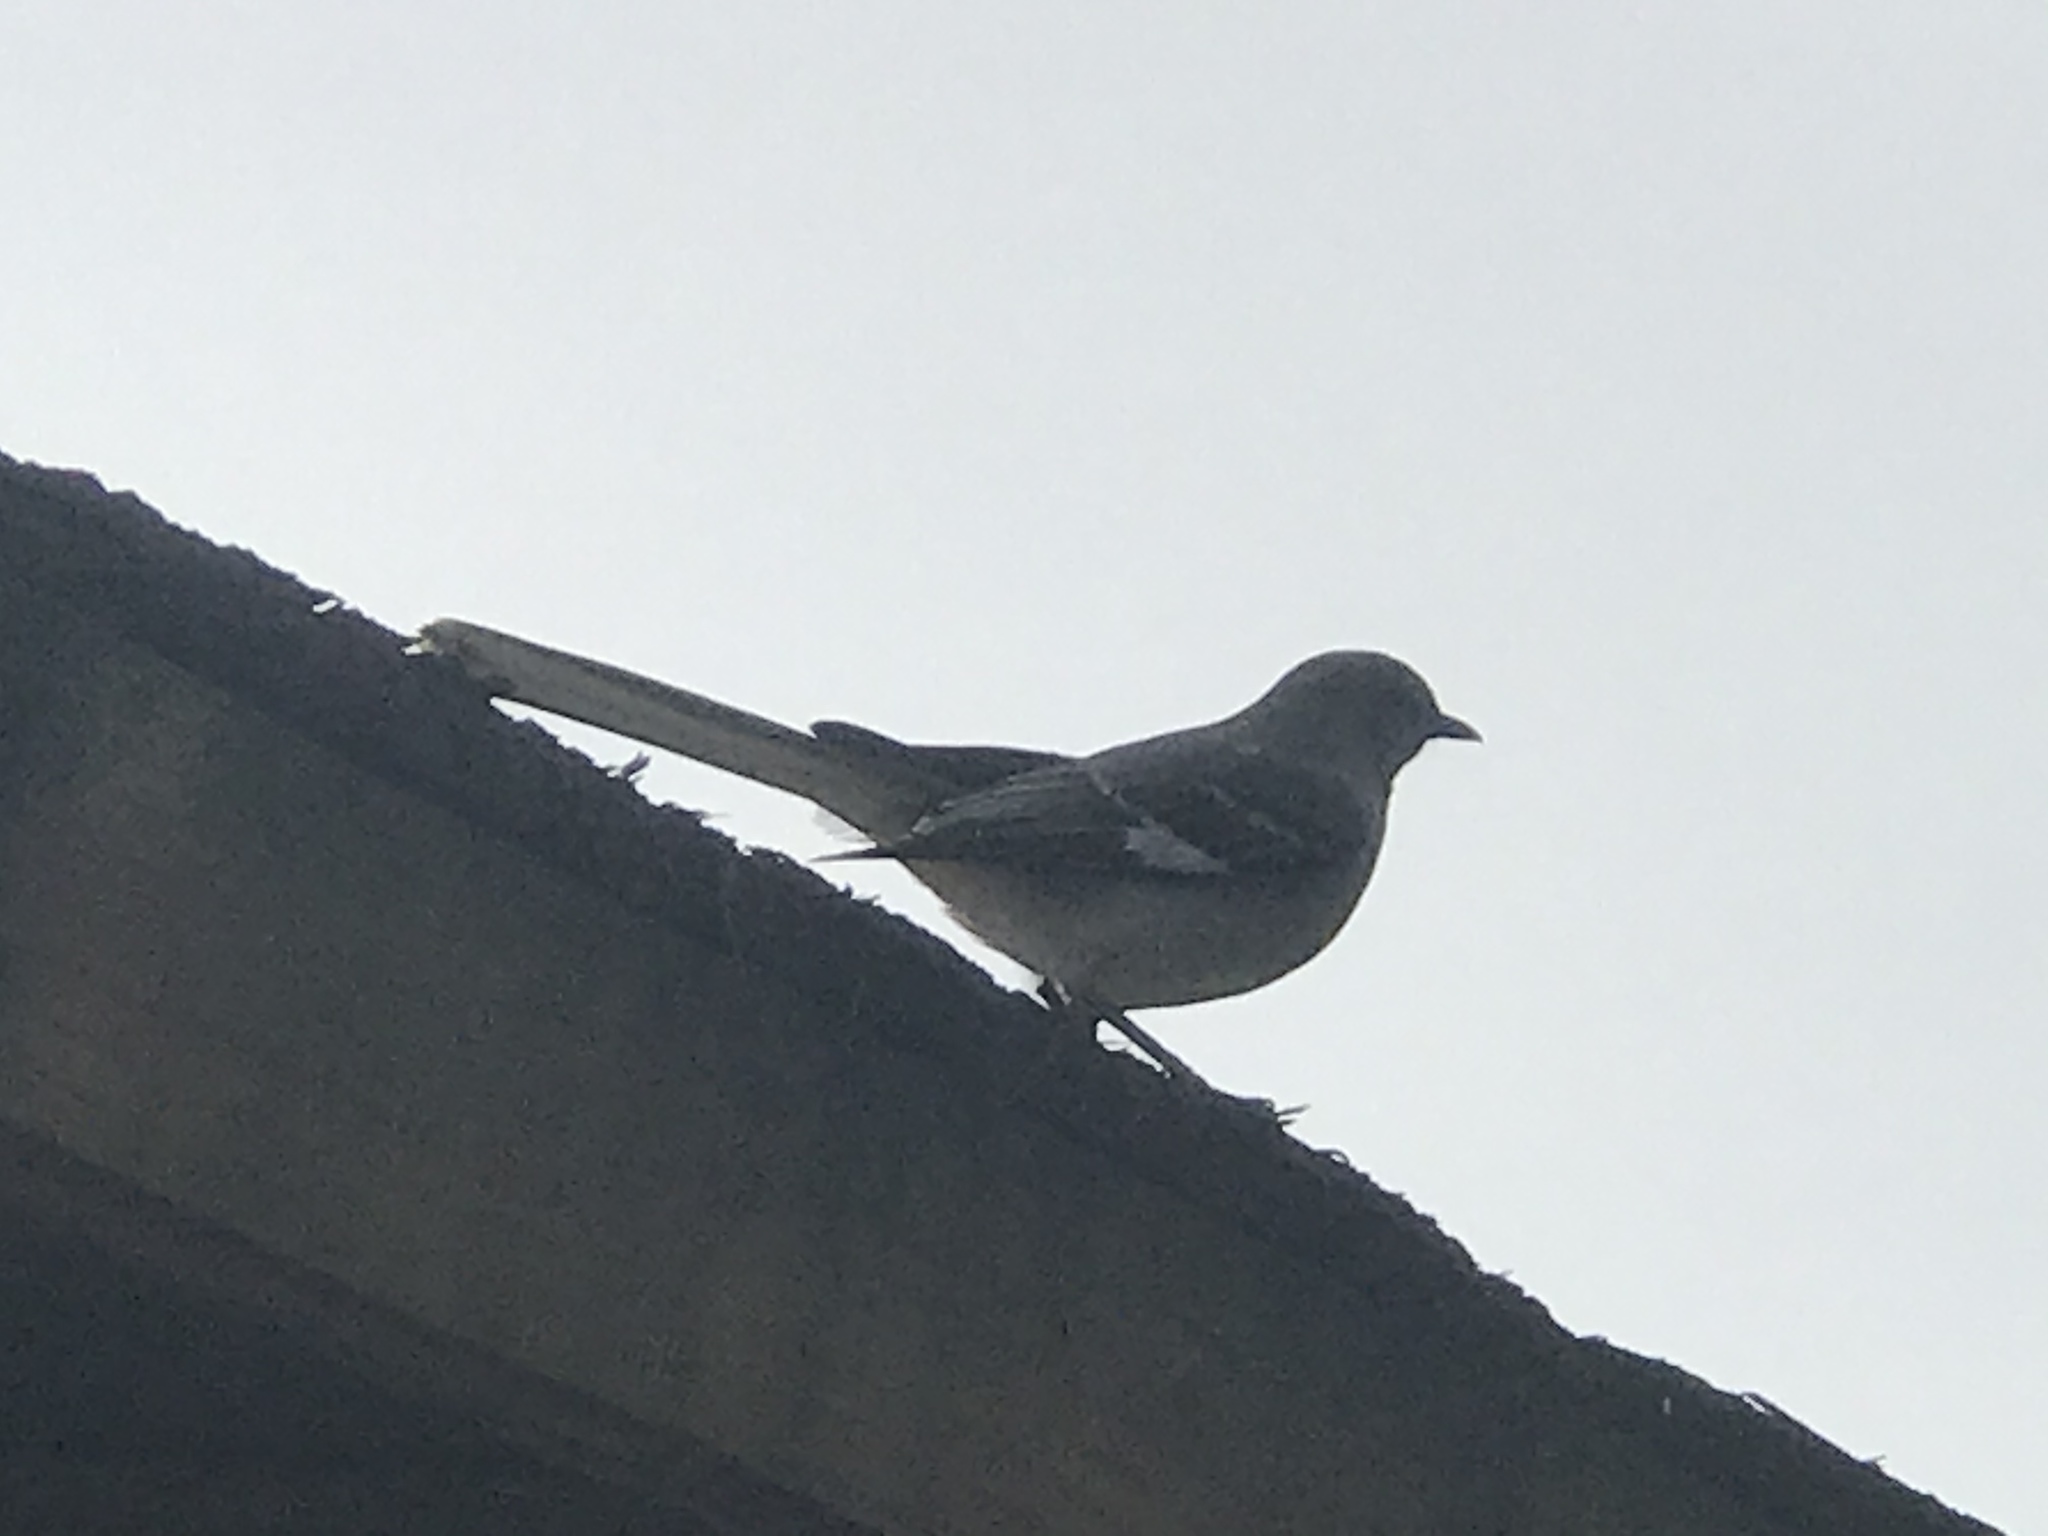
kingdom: Animalia
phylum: Chordata
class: Aves
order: Passeriformes
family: Mimidae
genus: Mimus
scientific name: Mimus polyglottos
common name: Northern mockingbird
